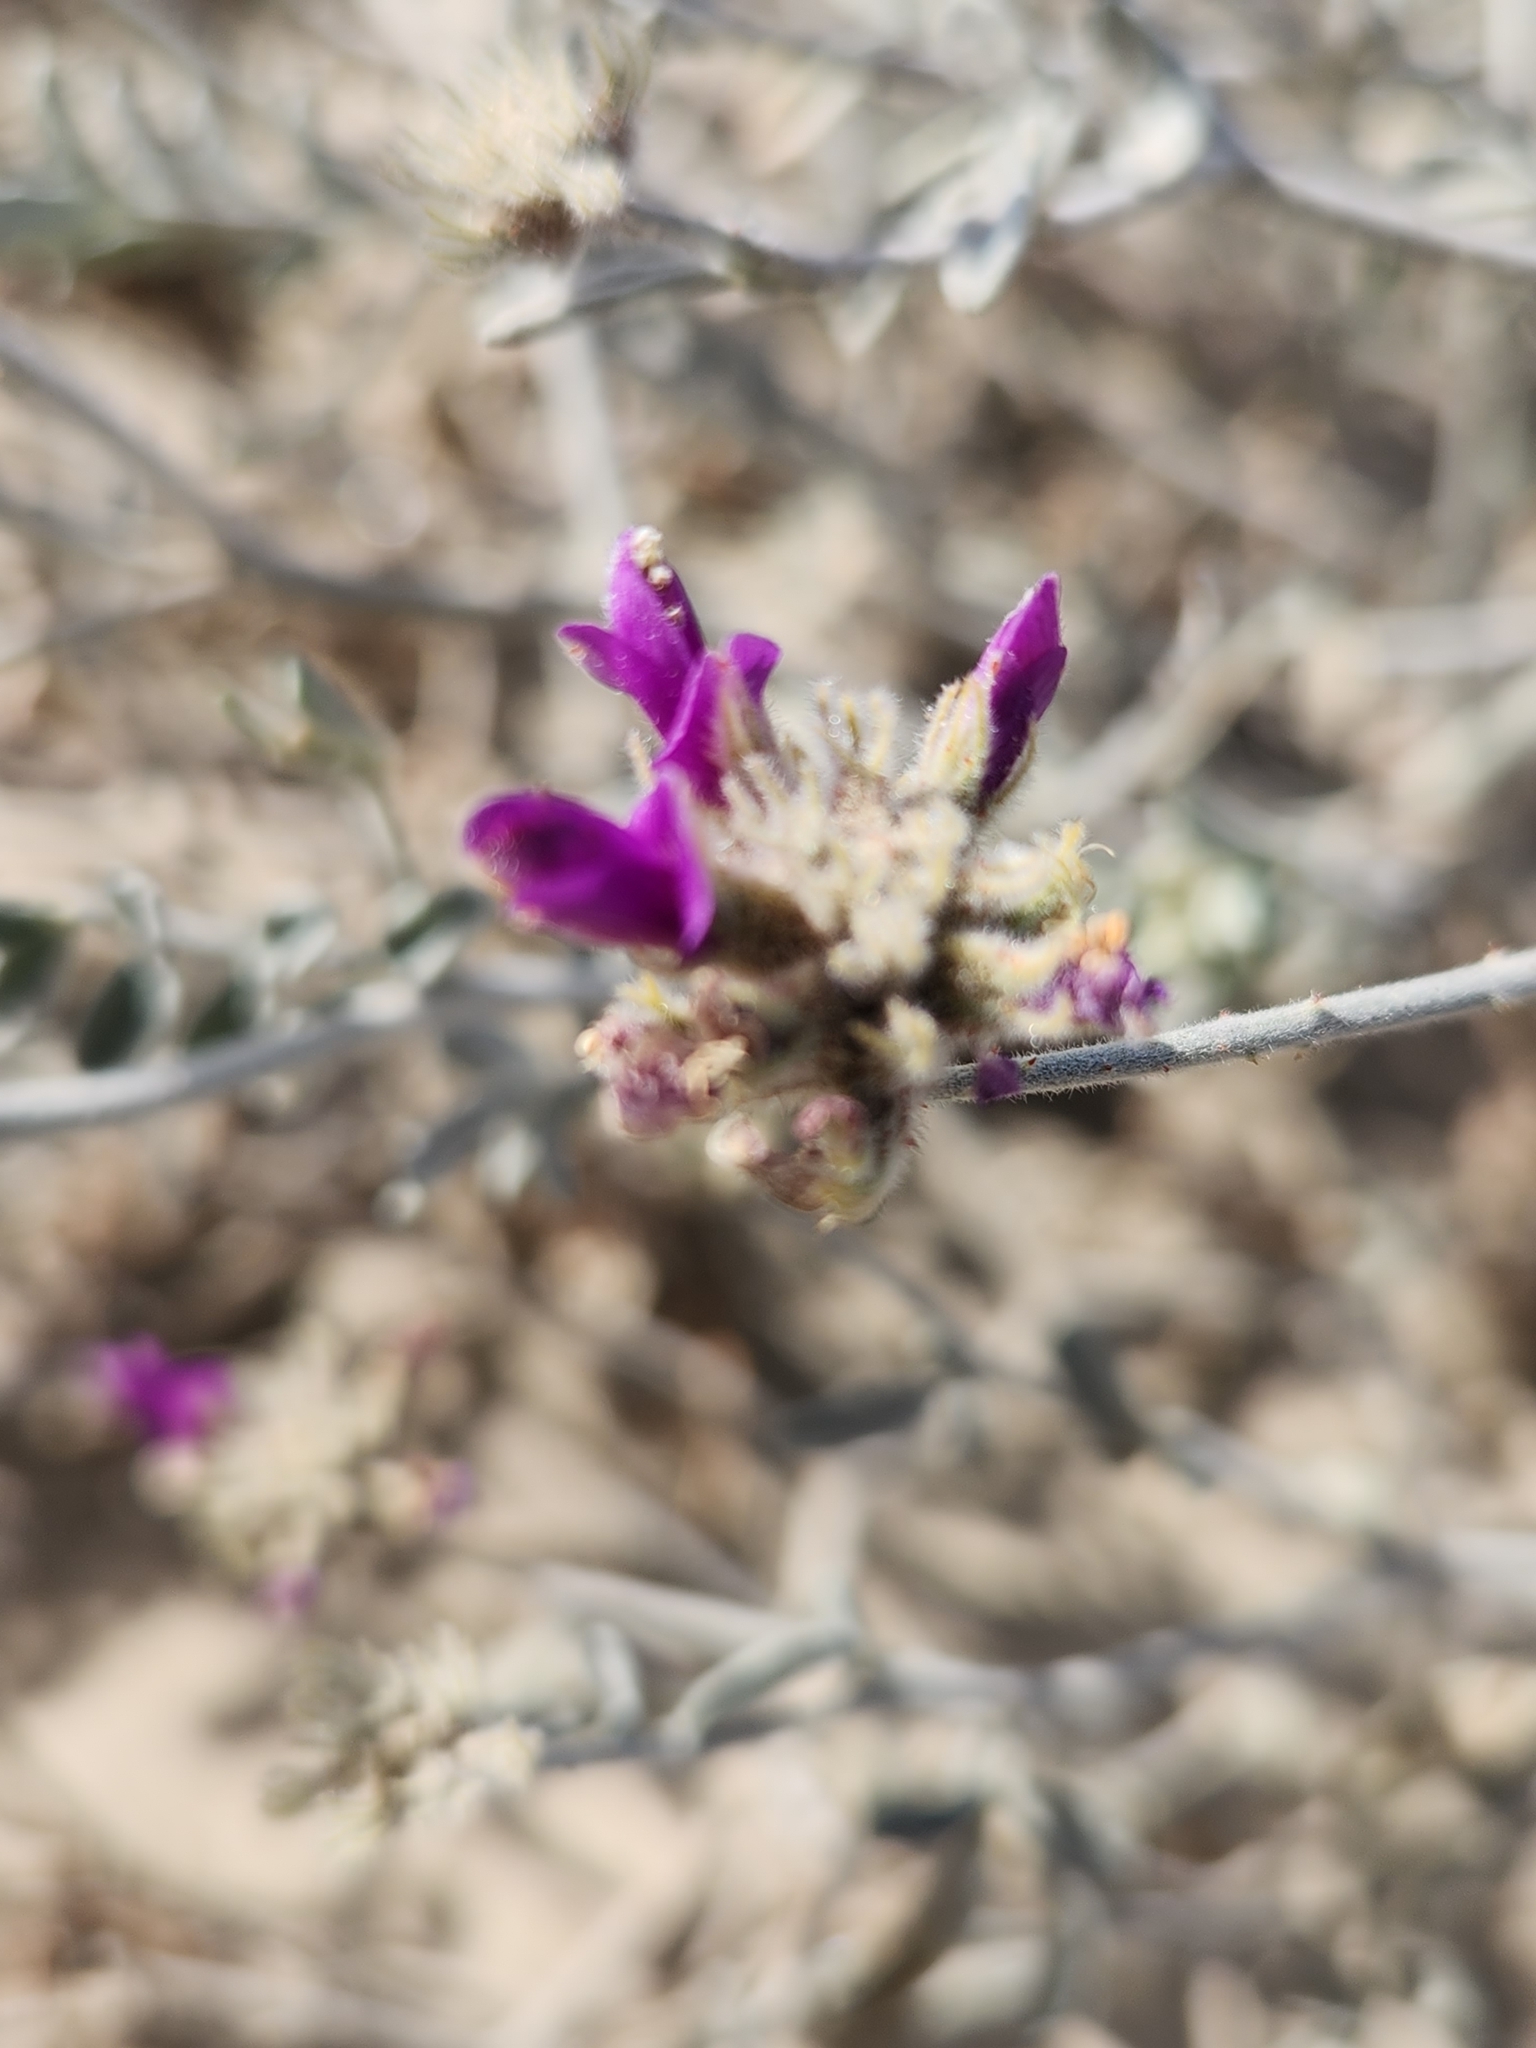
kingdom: Plantae
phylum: Tracheophyta
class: Magnoliopsida
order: Fabales
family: Fabaceae
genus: Psorothamnus
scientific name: Psorothamnus emoryi
